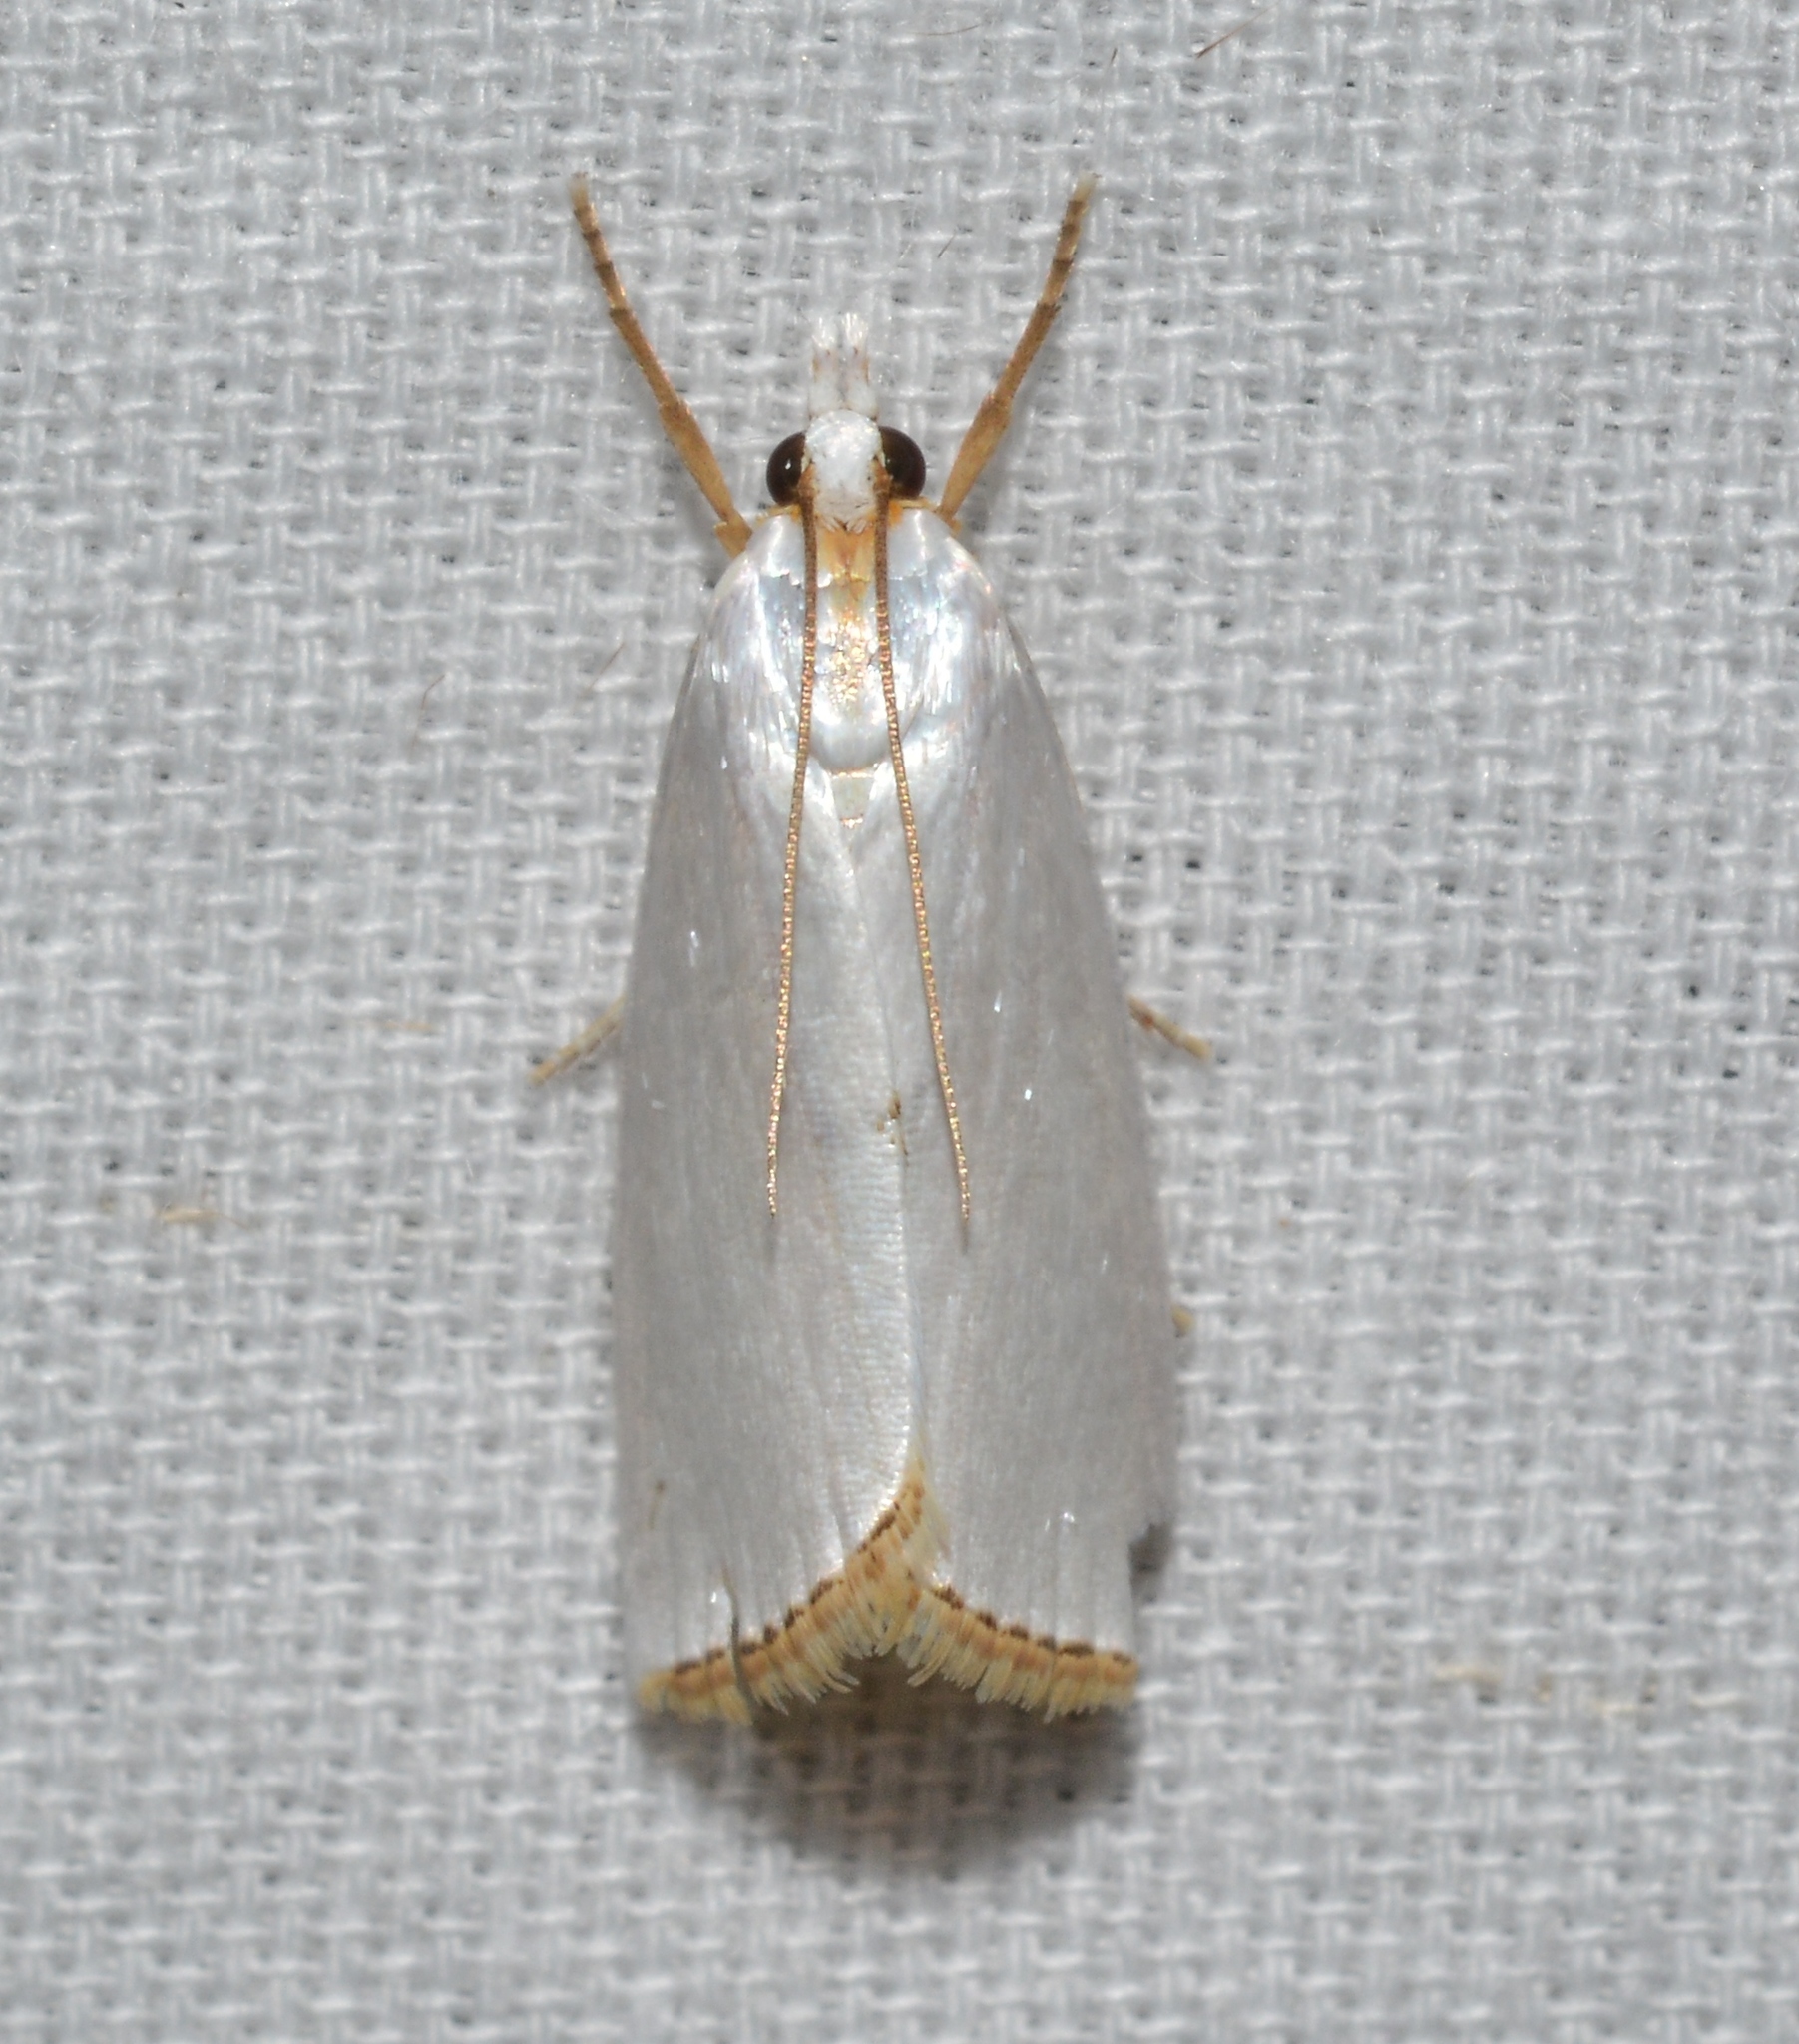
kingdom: Animalia
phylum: Arthropoda
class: Insecta
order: Lepidoptera
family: Crambidae
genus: Argyria
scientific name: Argyria nivalis
